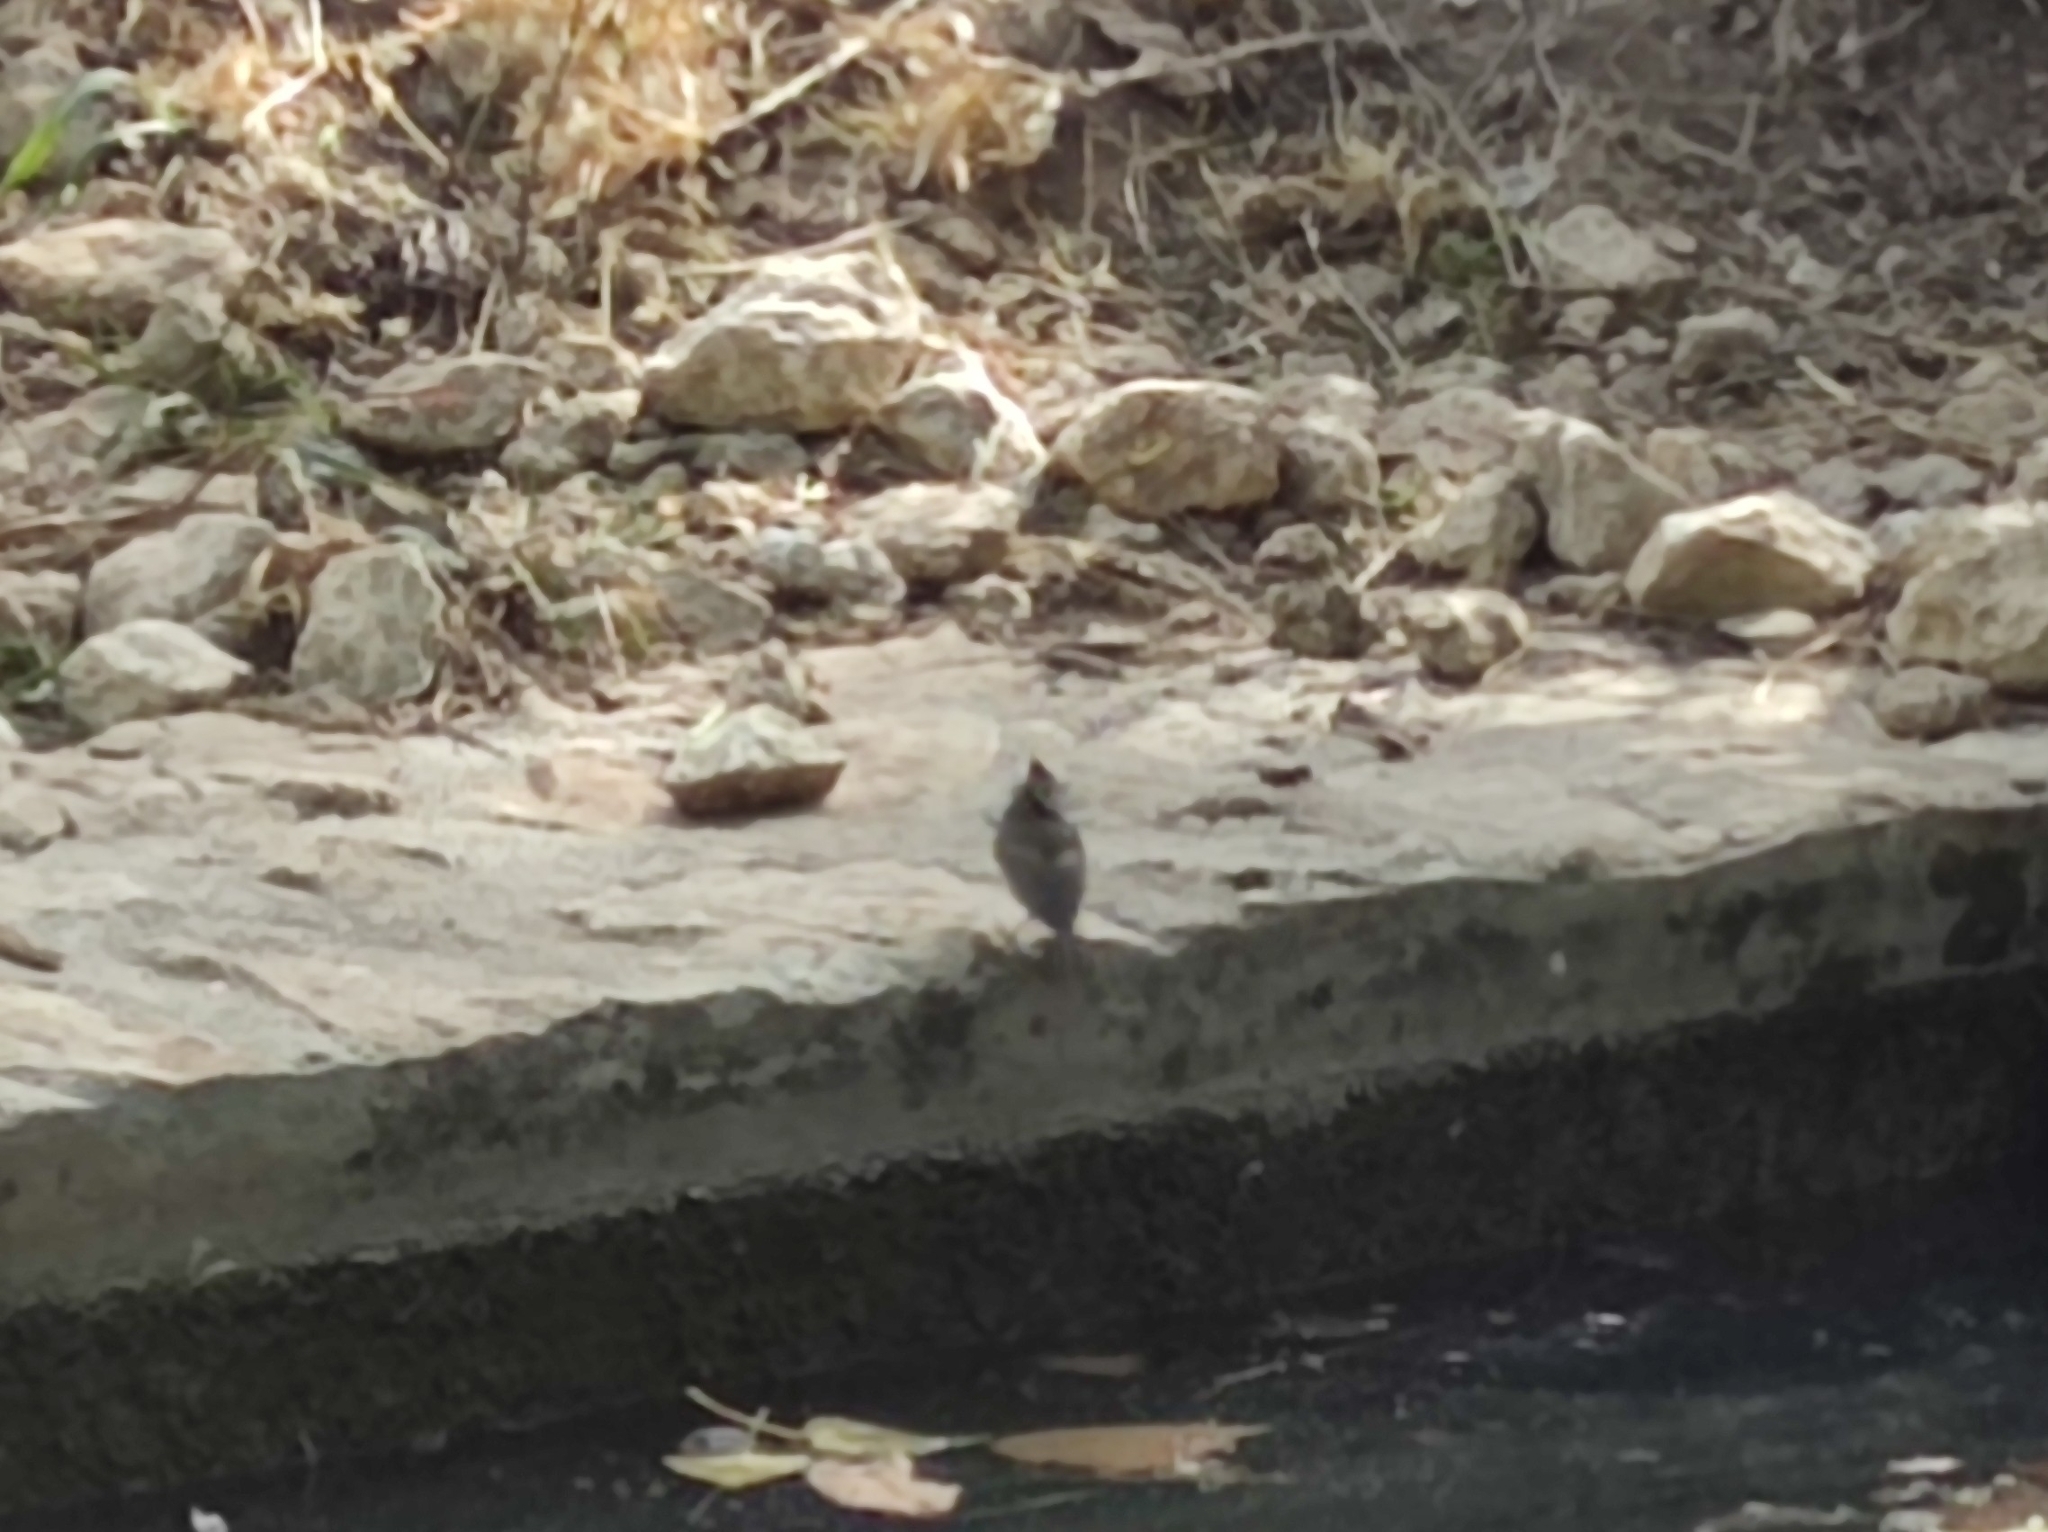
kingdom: Animalia
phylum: Chordata
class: Aves
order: Passeriformes
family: Paridae
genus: Lophophanes
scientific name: Lophophanes cristatus
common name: European crested tit
